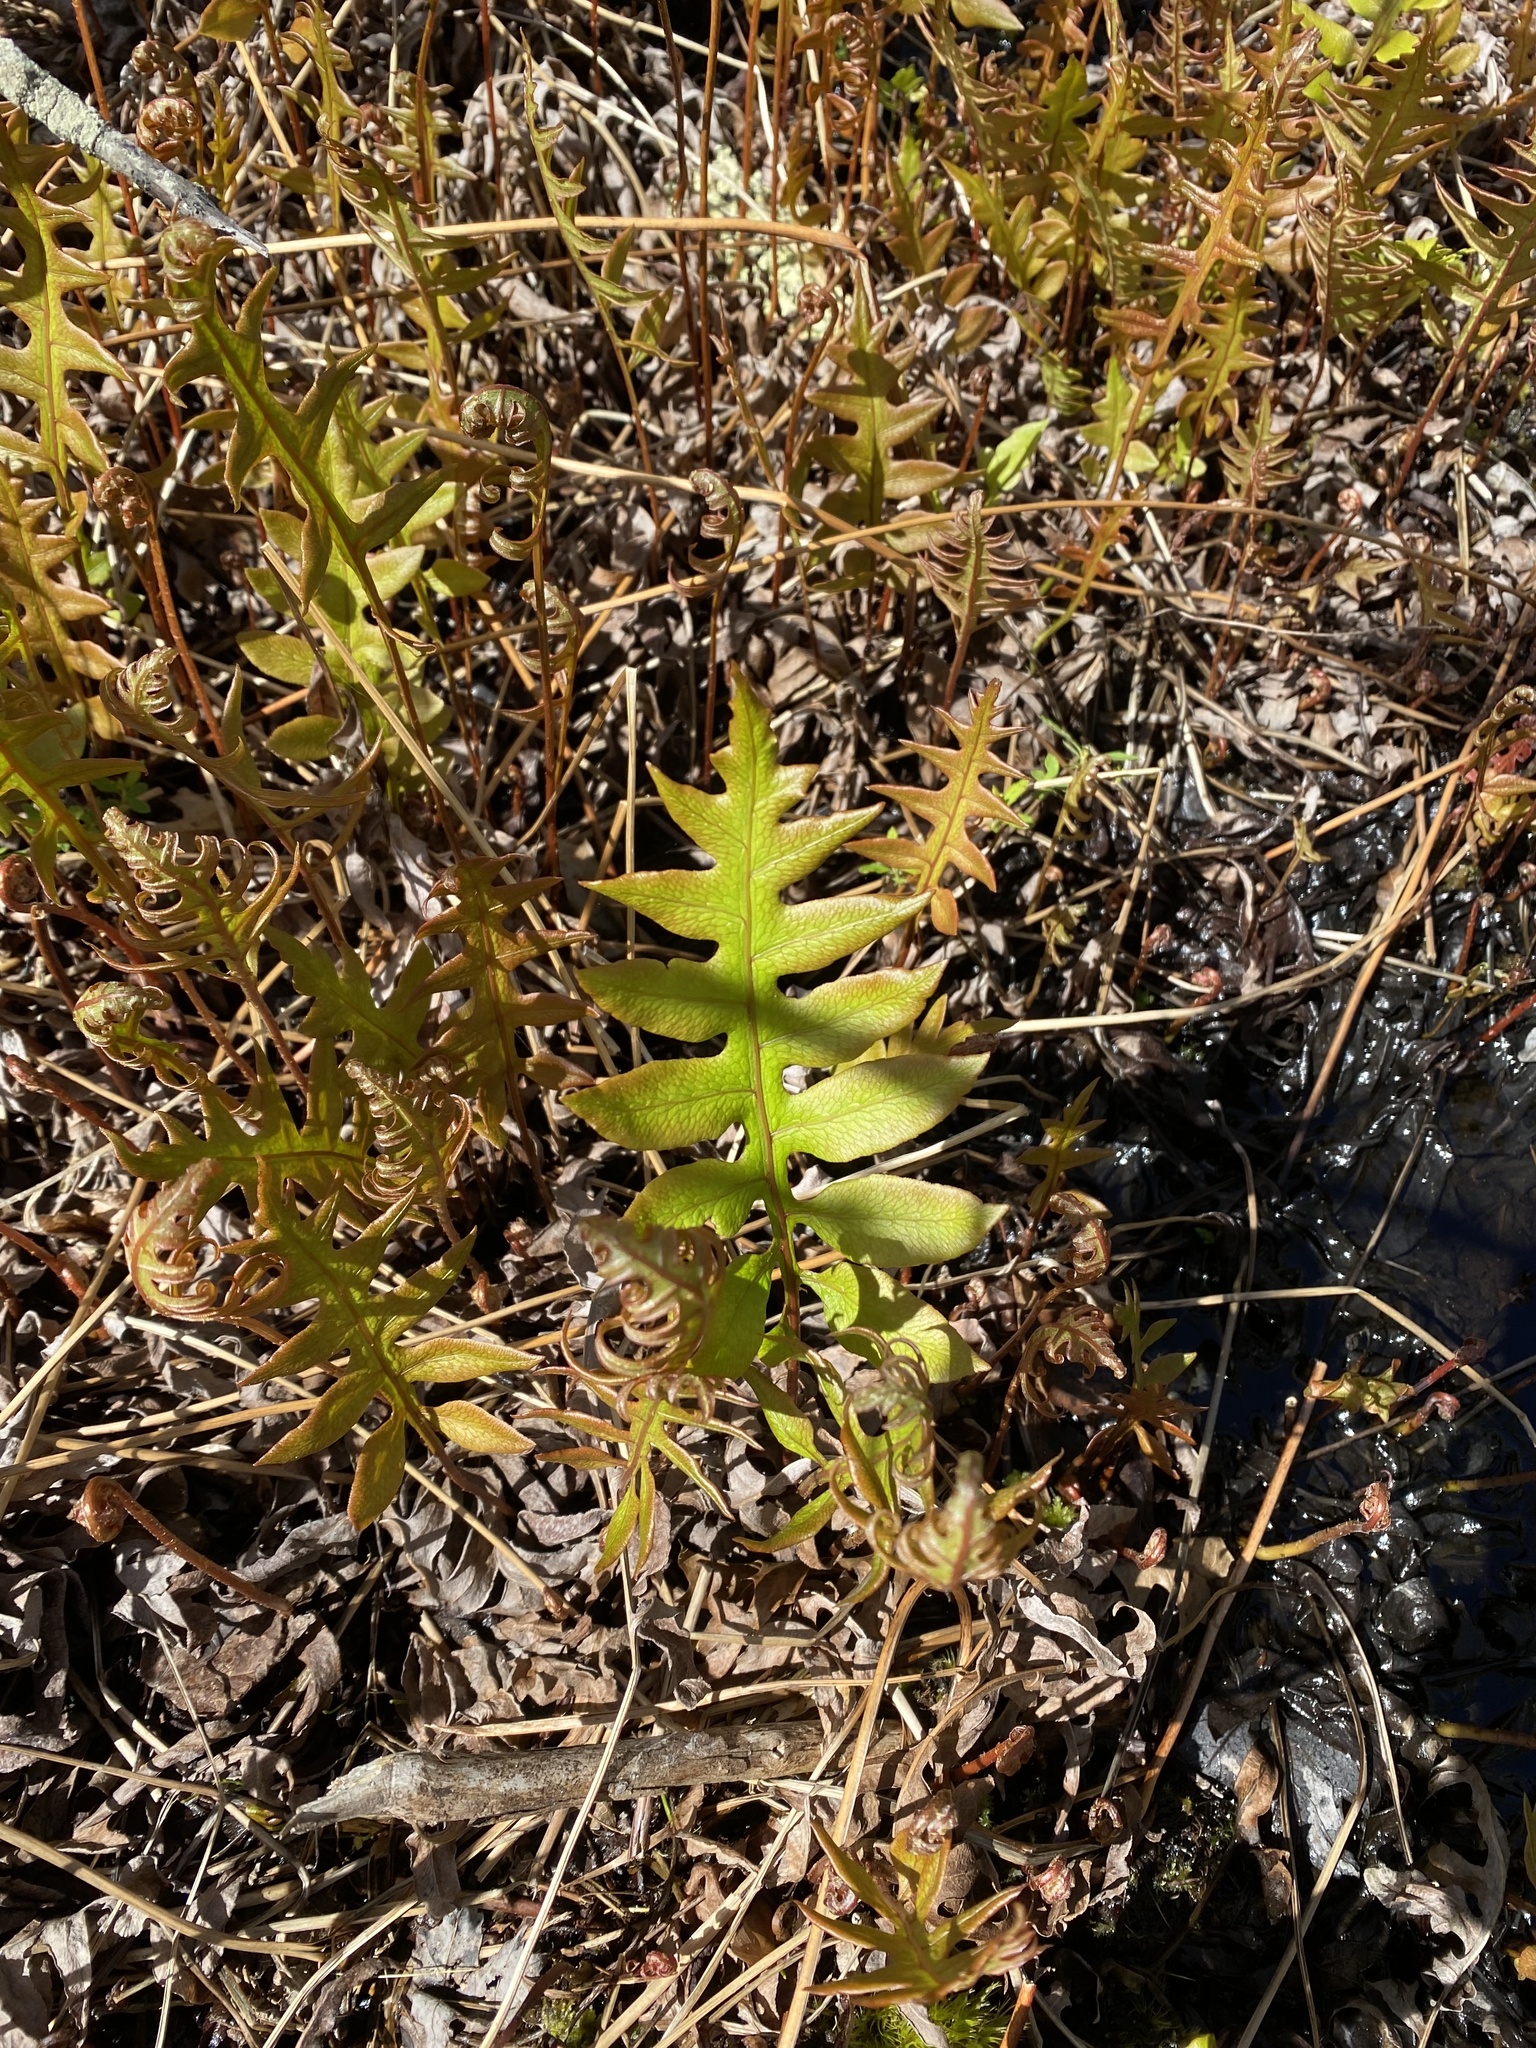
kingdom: Plantae
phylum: Tracheophyta
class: Polypodiopsida
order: Polypodiales
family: Blechnaceae
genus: Lorinseria
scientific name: Lorinseria areolata
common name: Dwarf chain fern
